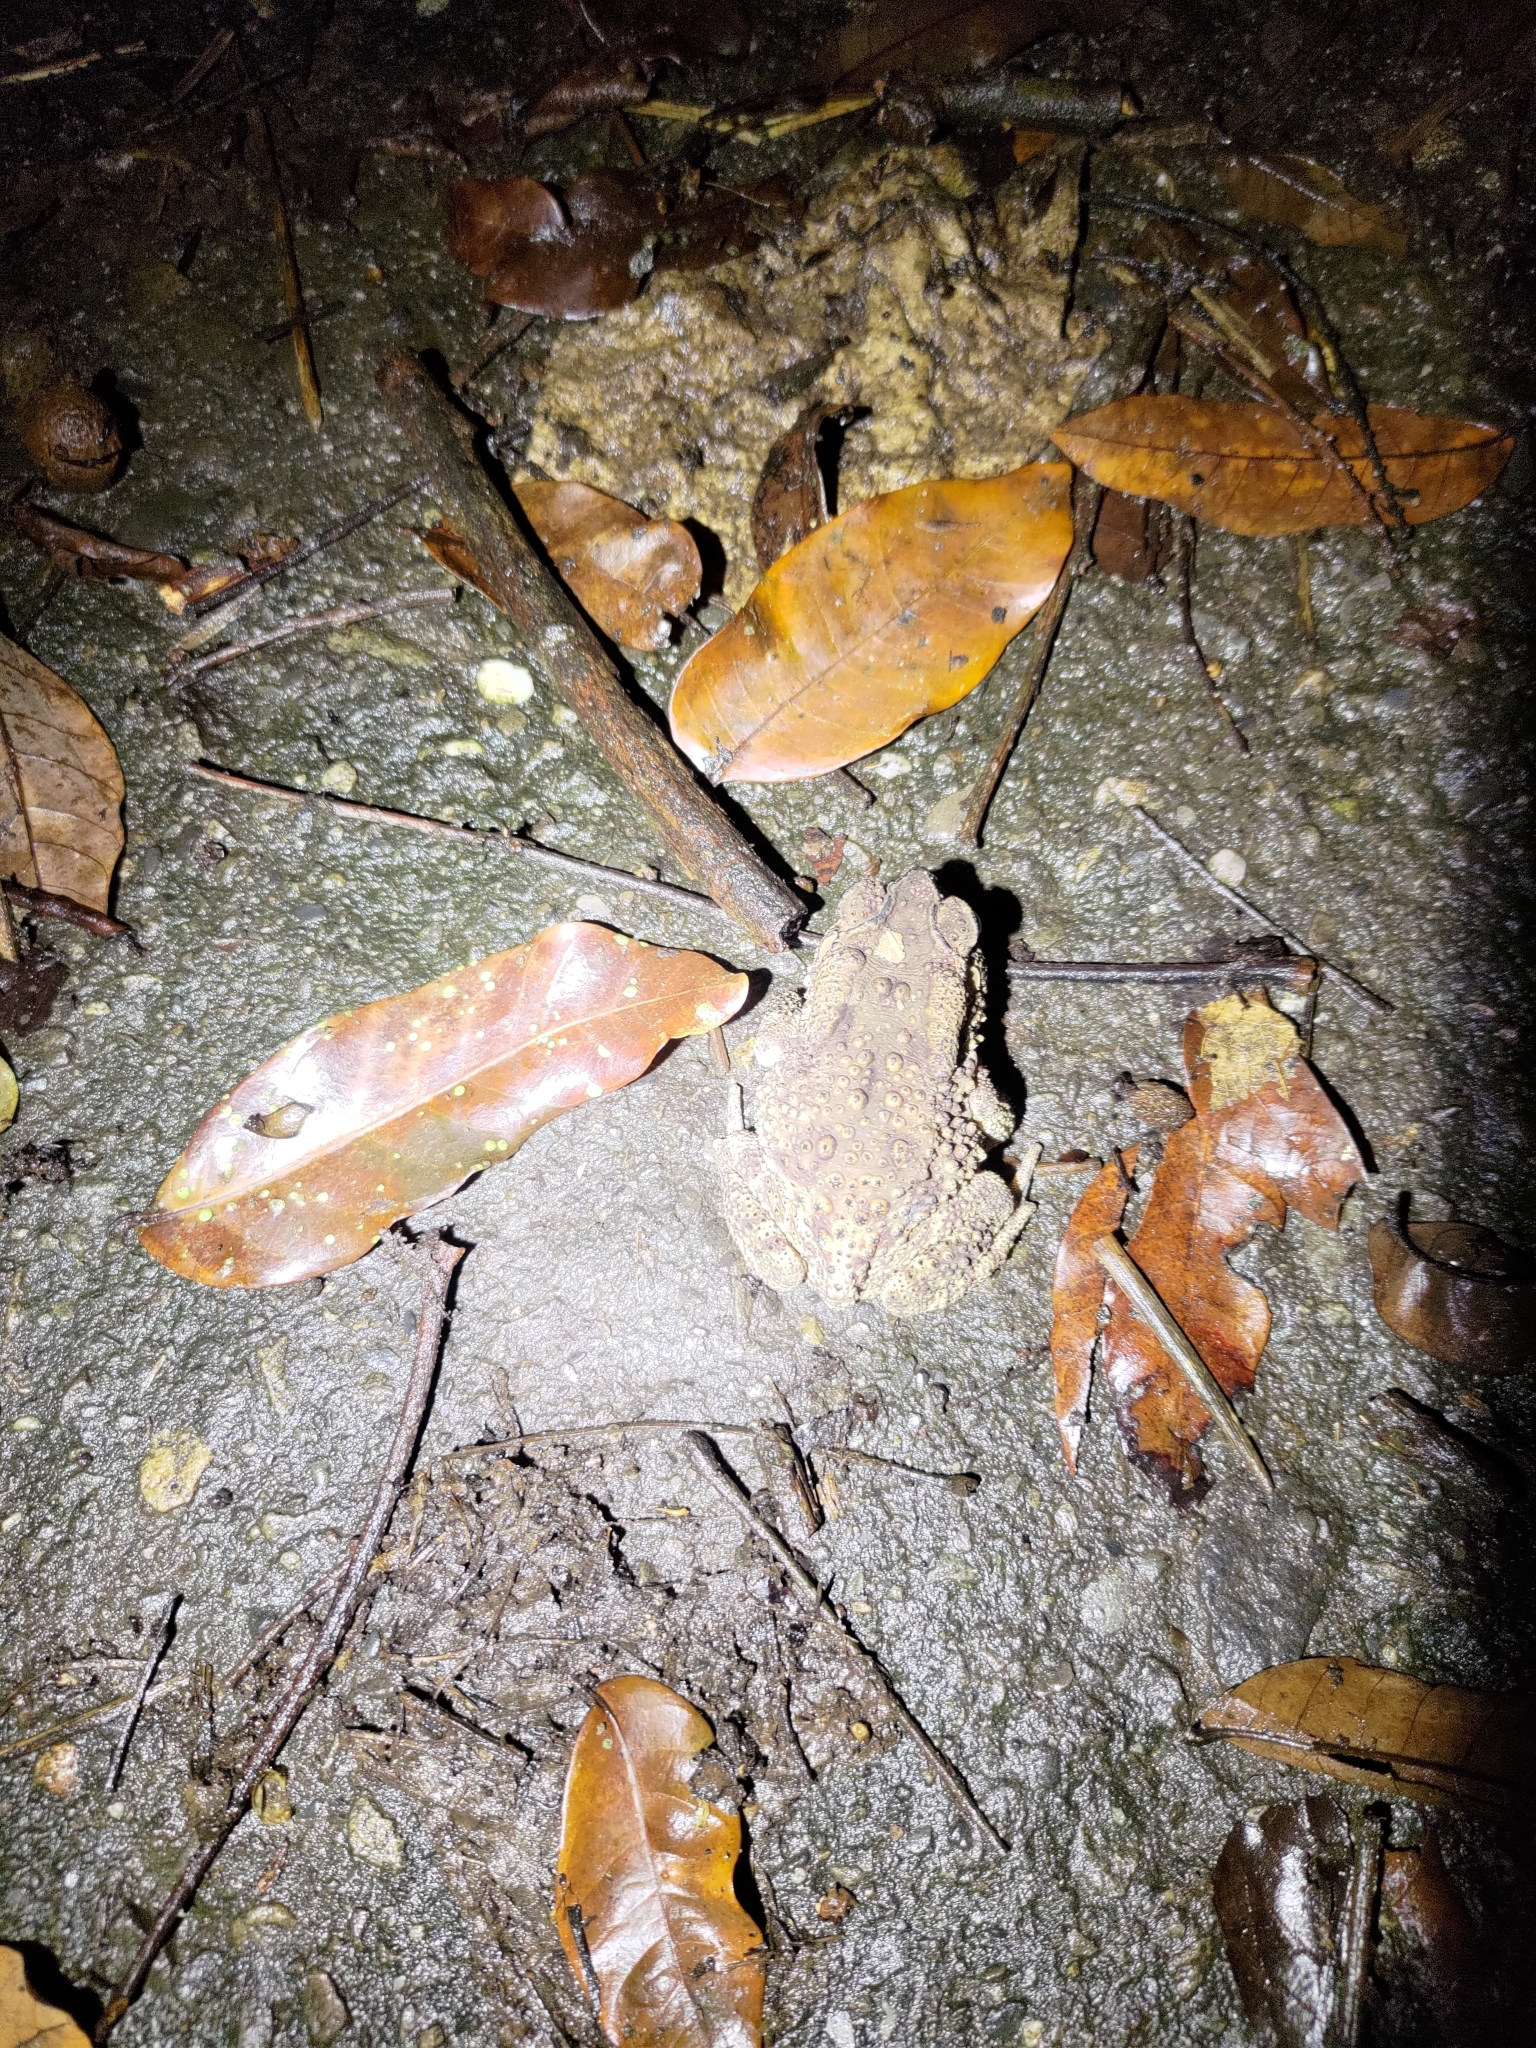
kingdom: Animalia
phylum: Chordata
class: Amphibia
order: Anura
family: Bufonidae
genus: Duttaphrynus
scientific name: Duttaphrynus melanostictus
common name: Common sunda toad
